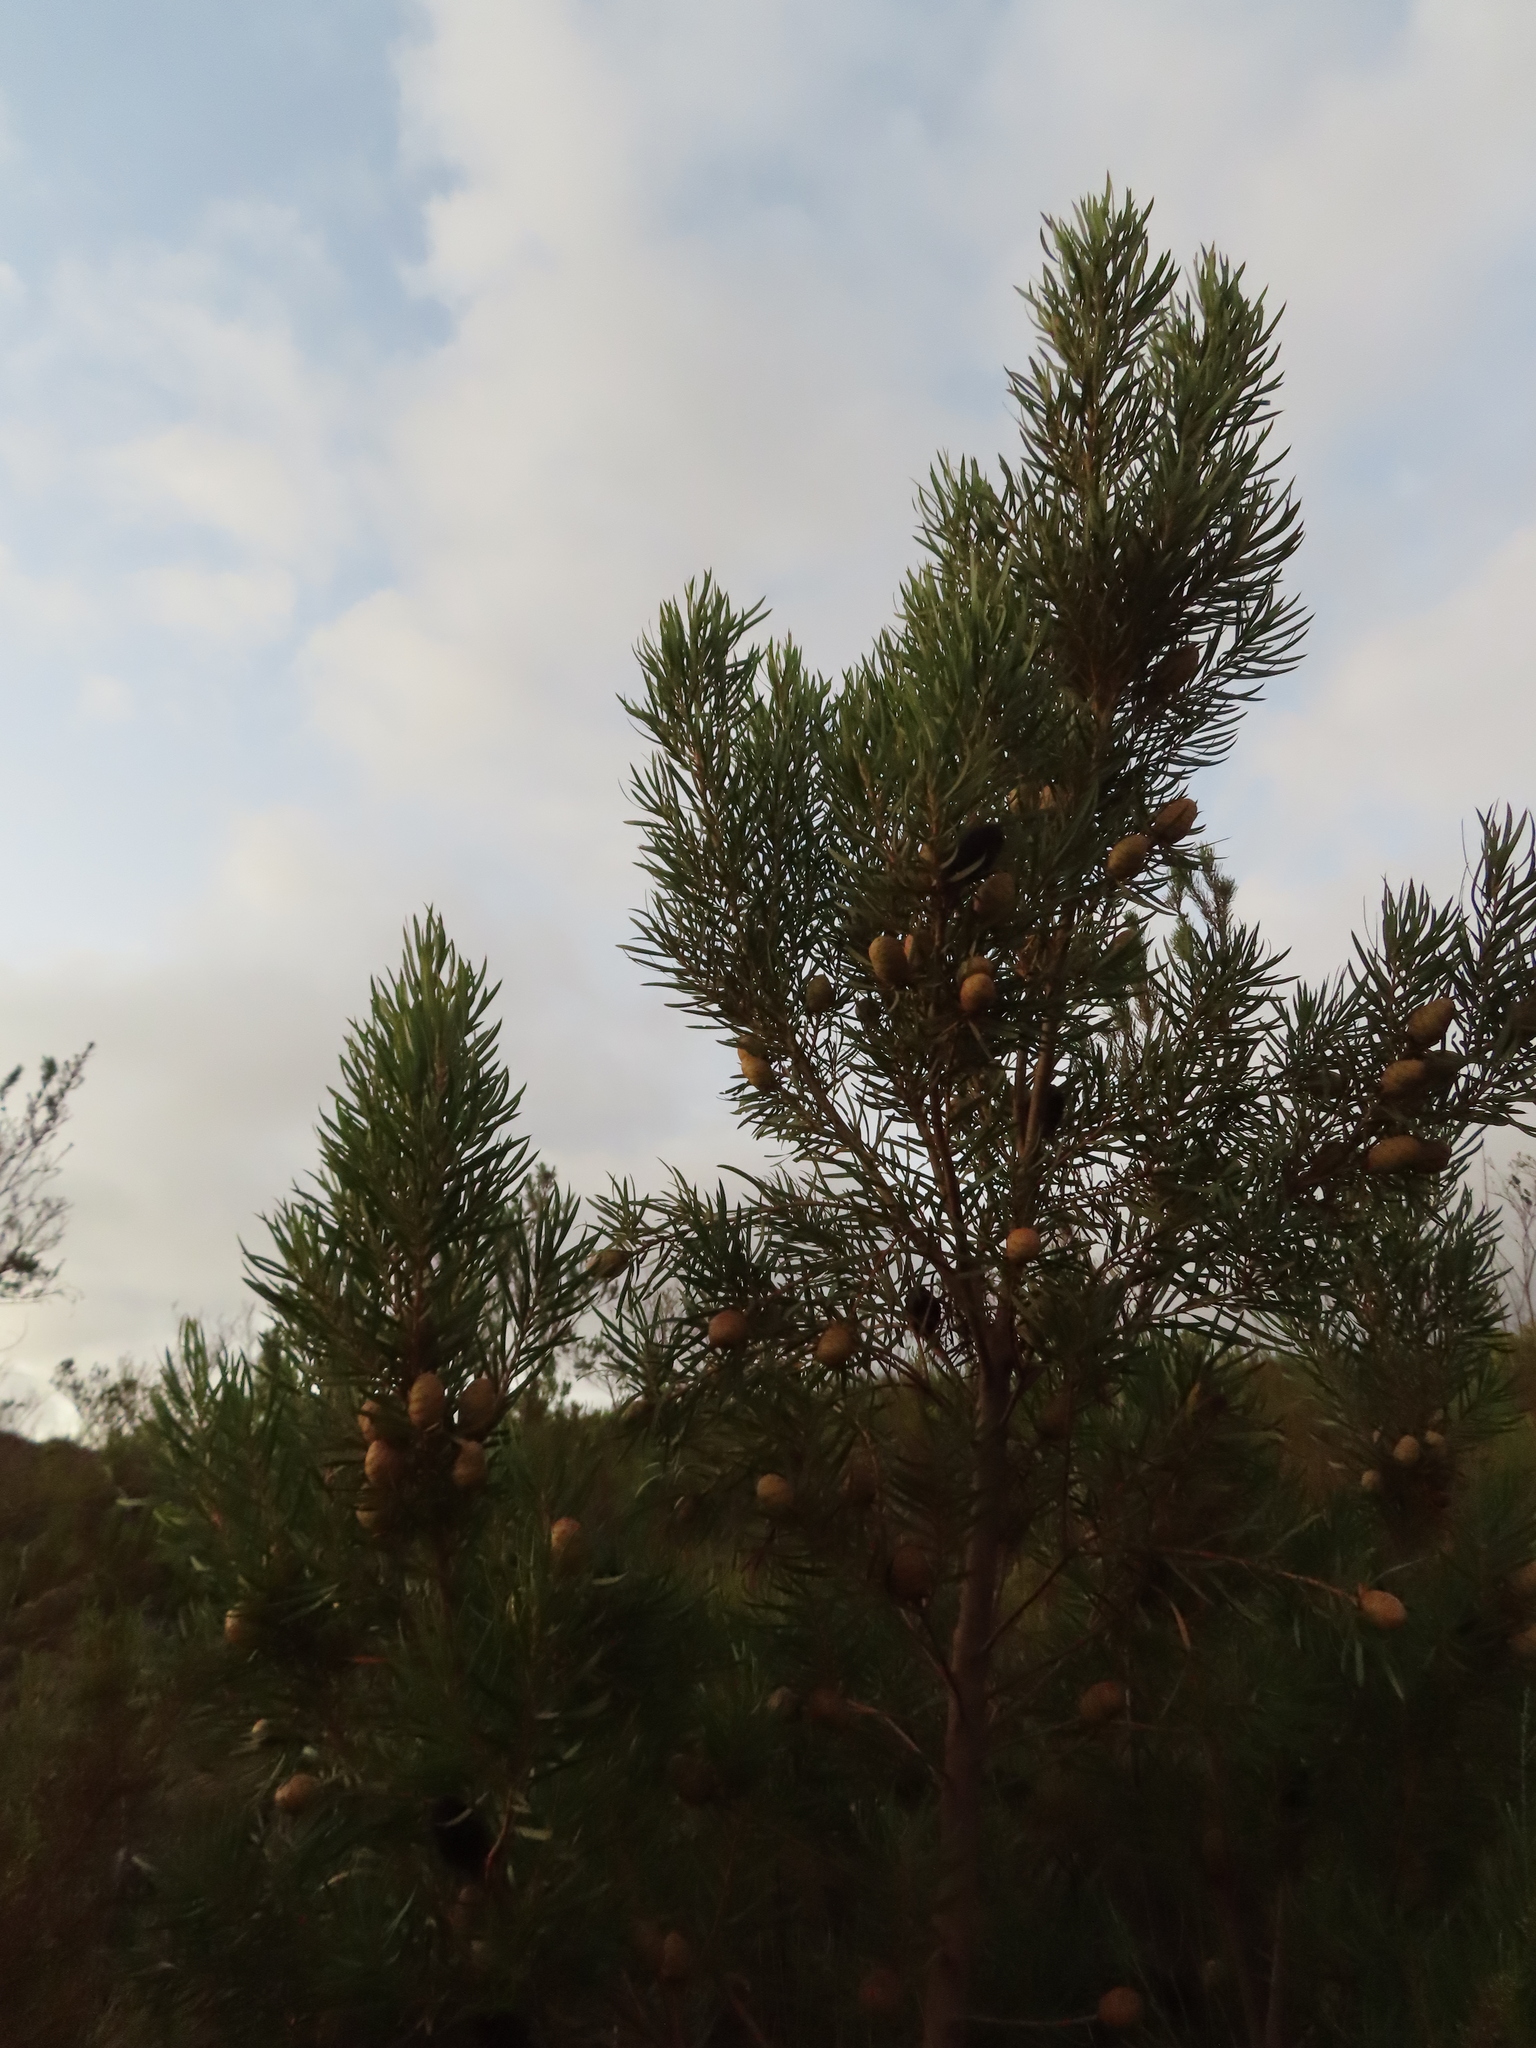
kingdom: Plantae
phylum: Tracheophyta
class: Magnoliopsida
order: Proteales
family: Proteaceae
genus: Leucadendron
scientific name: Leucadendron salicifolium
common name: Common stream conebush
